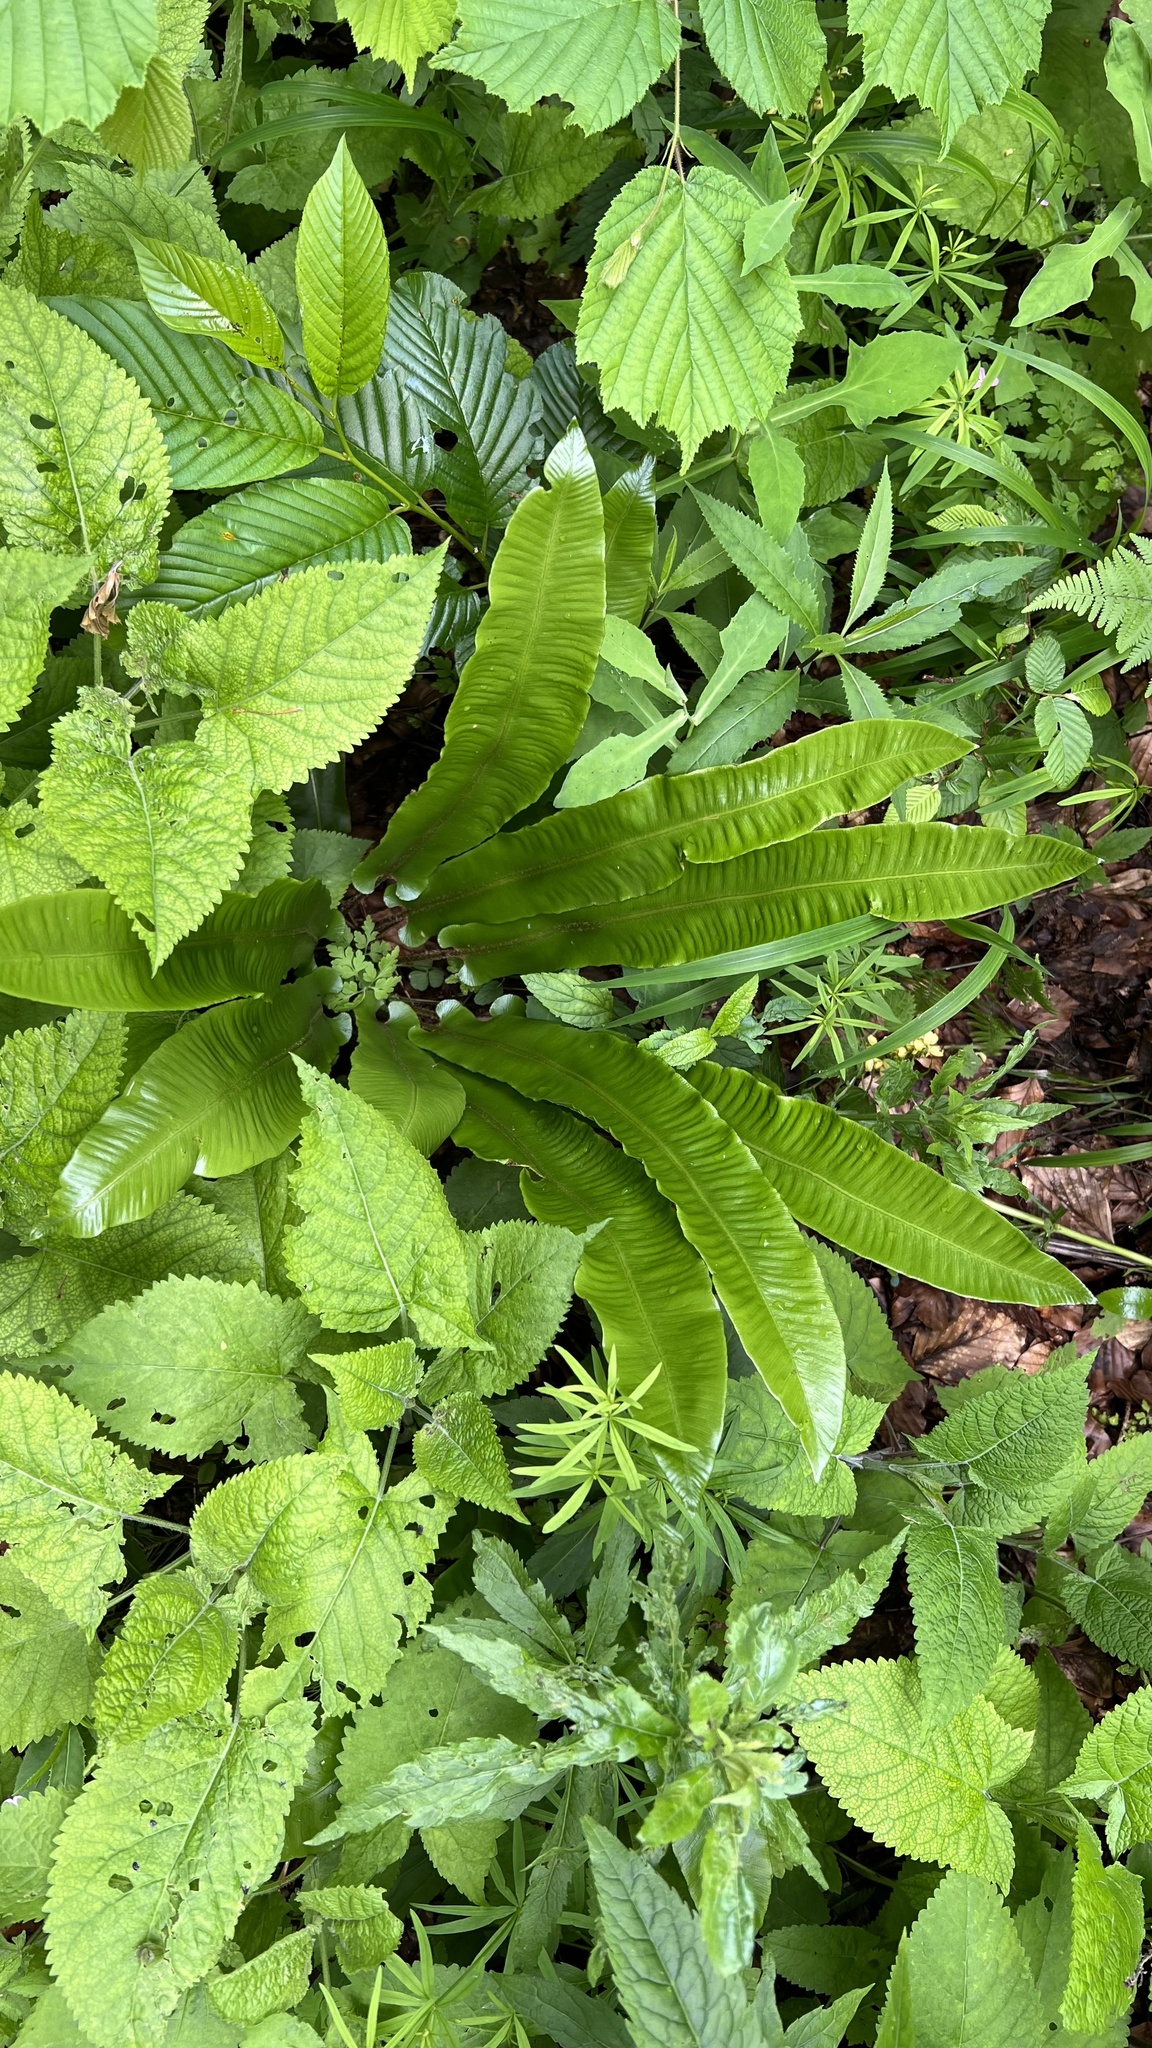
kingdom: Plantae
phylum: Tracheophyta
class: Polypodiopsida
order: Polypodiales
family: Aspleniaceae
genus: Asplenium
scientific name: Asplenium scolopendrium
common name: Hart's-tongue fern
